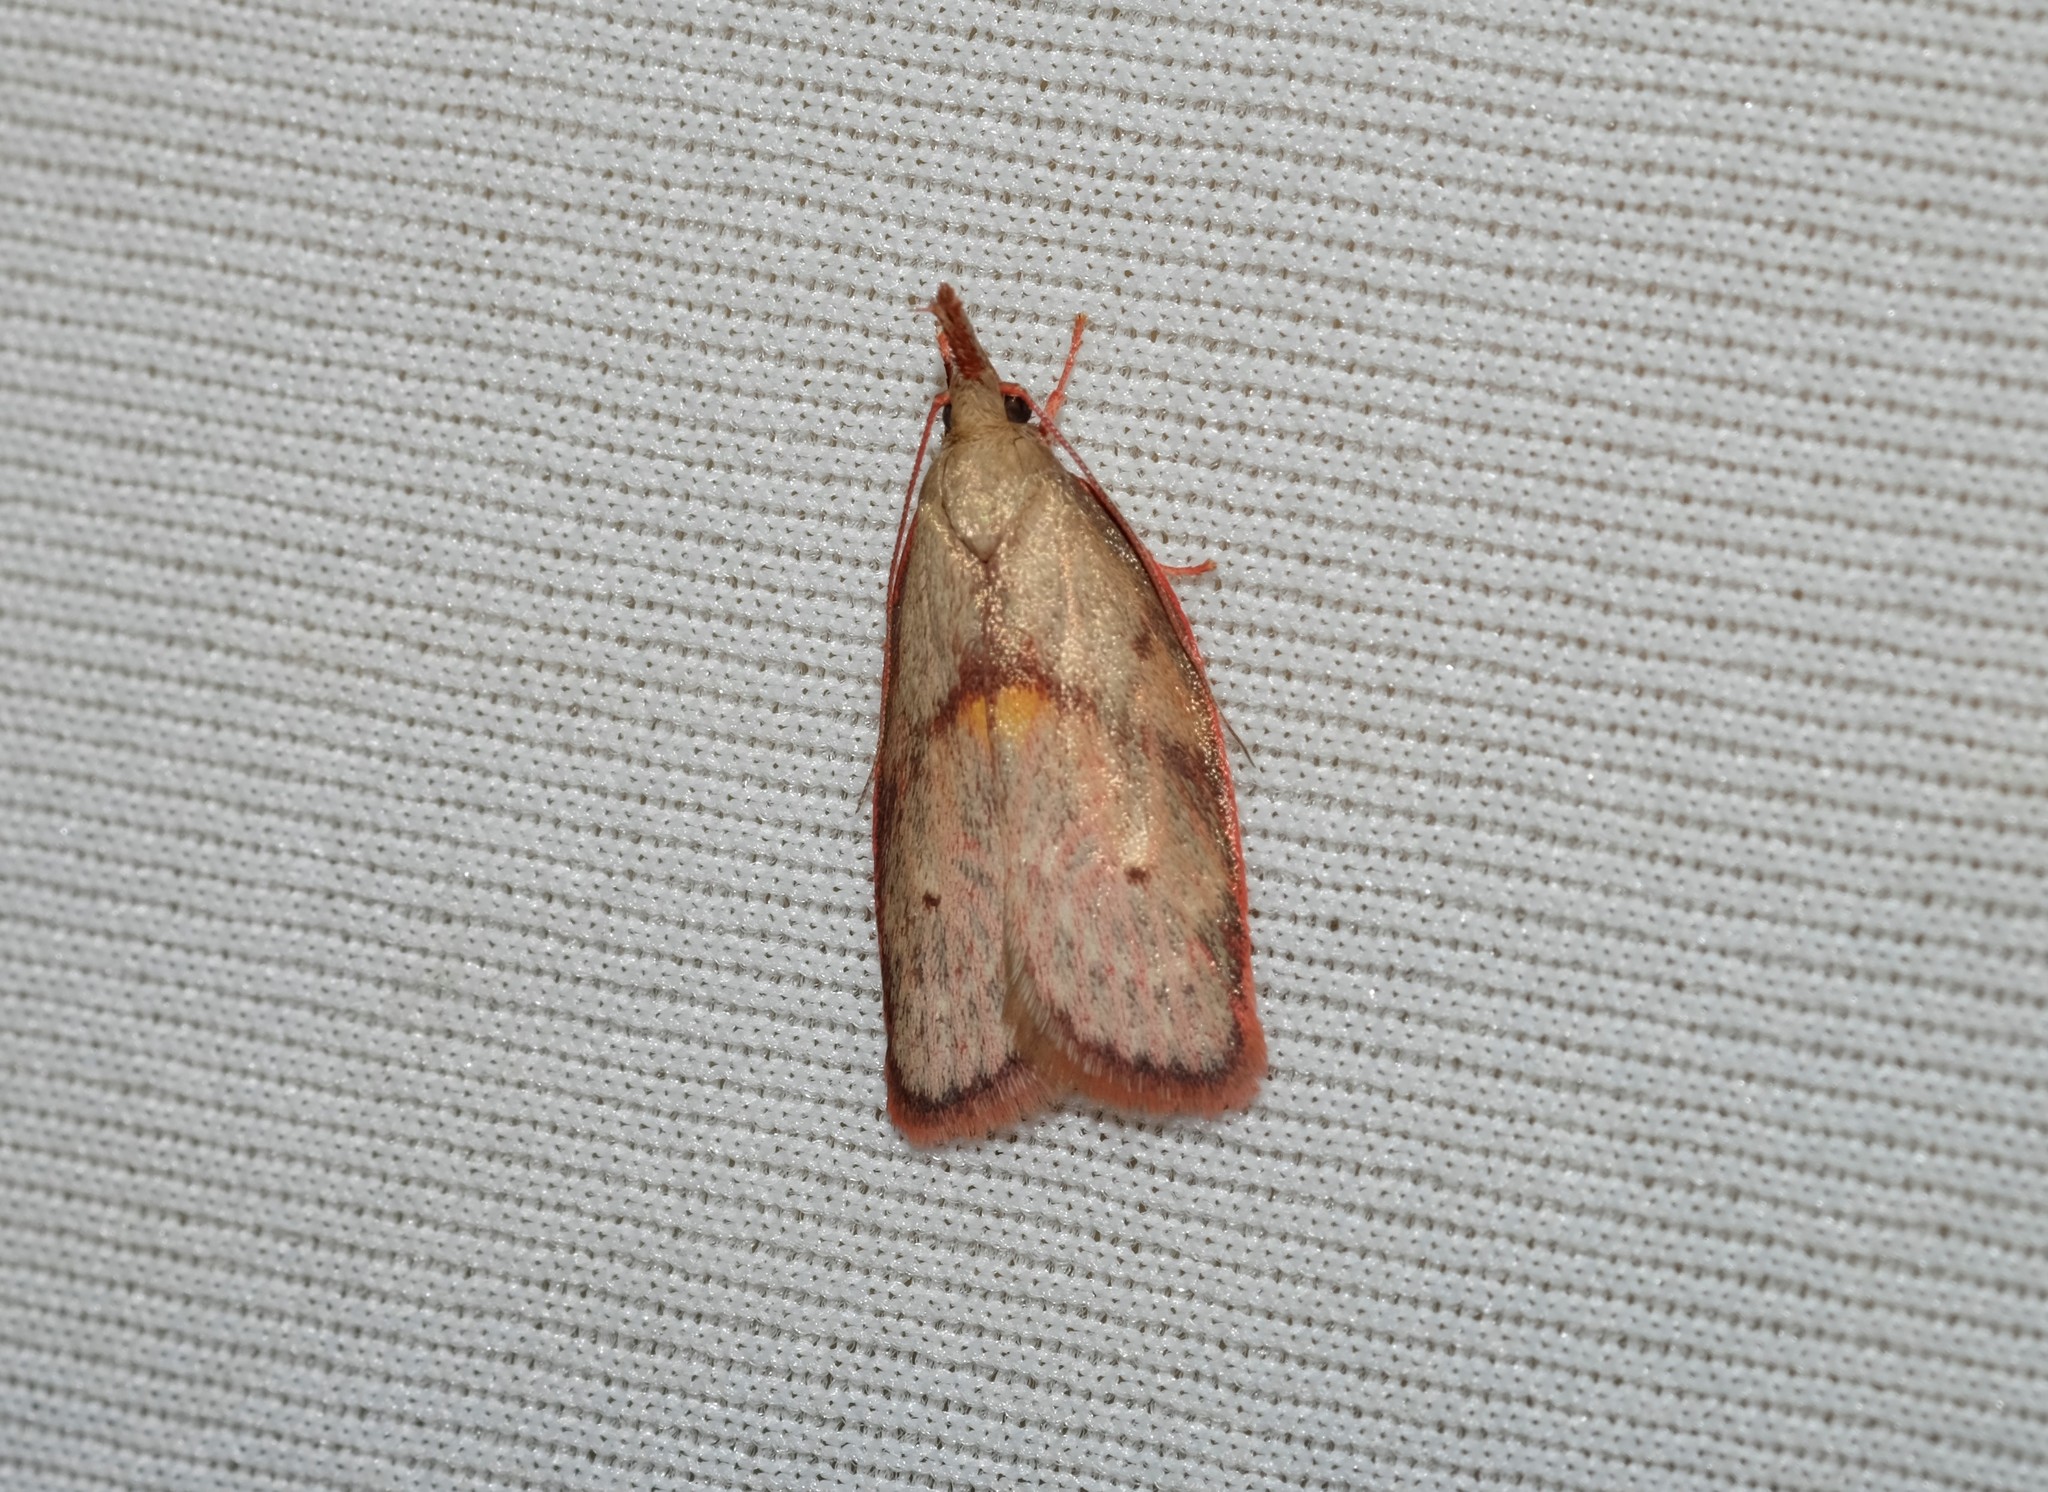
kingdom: Animalia
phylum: Arthropoda
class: Insecta
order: Lepidoptera
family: Depressariidae
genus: Enchocrates
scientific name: Enchocrates glaucopis
